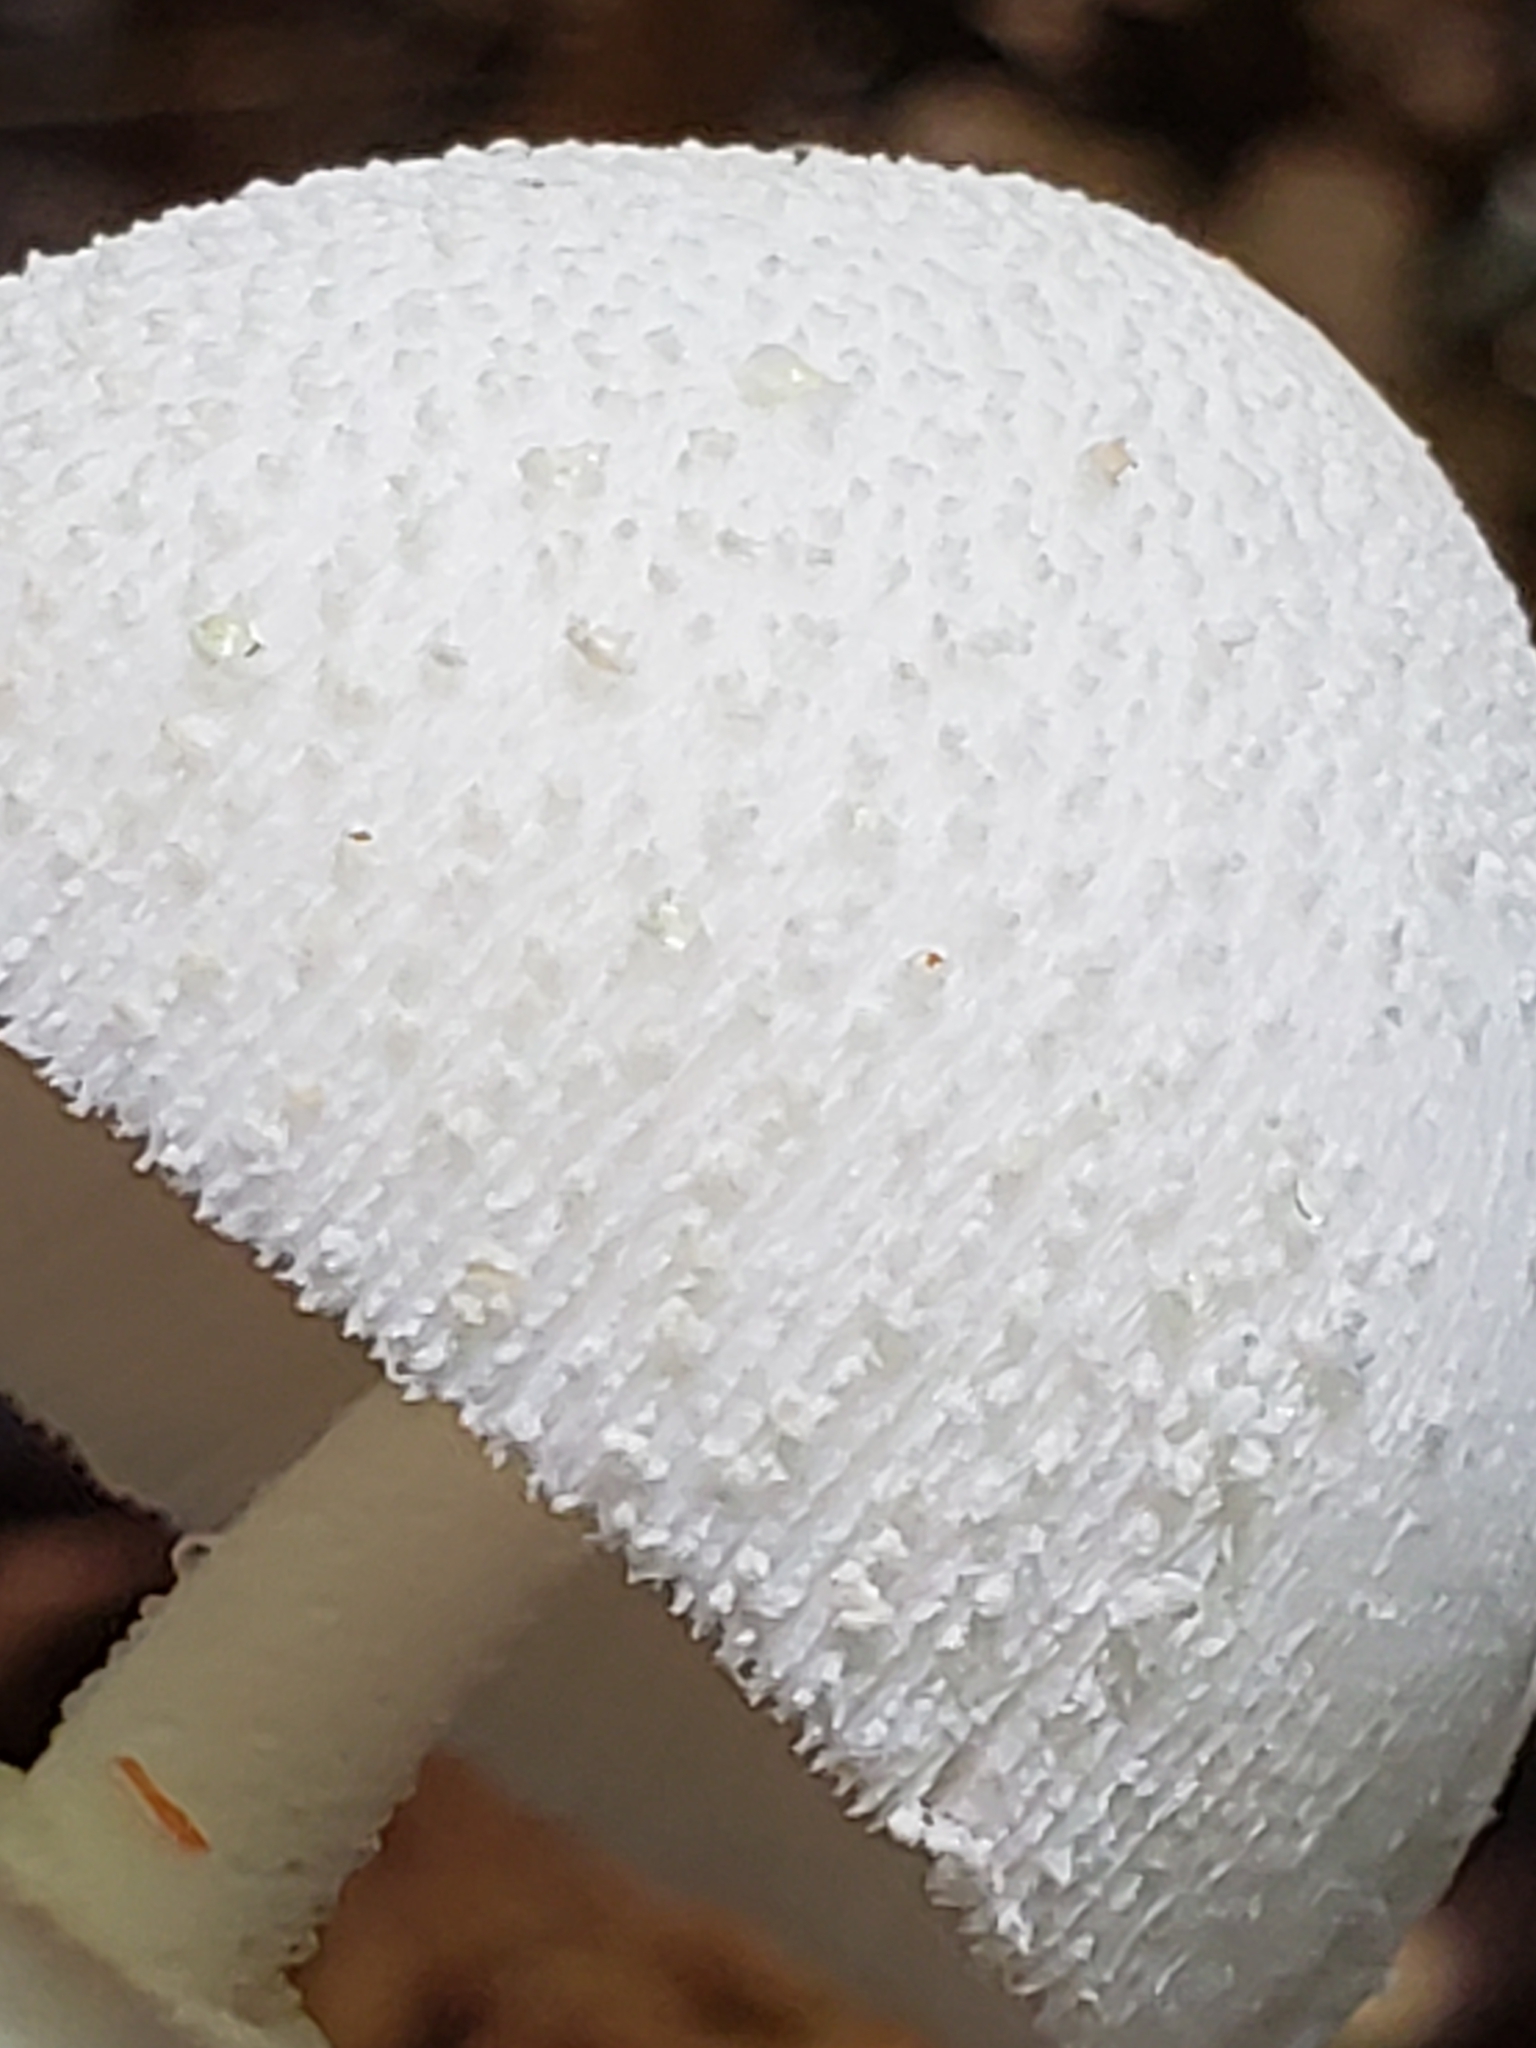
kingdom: Fungi
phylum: Basidiomycota
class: Agaricomycetes
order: Agaricales
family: Agaricaceae
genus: Leucocoprinus
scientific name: Leucocoprinus cepistipes
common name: Onion-stalk parasol
